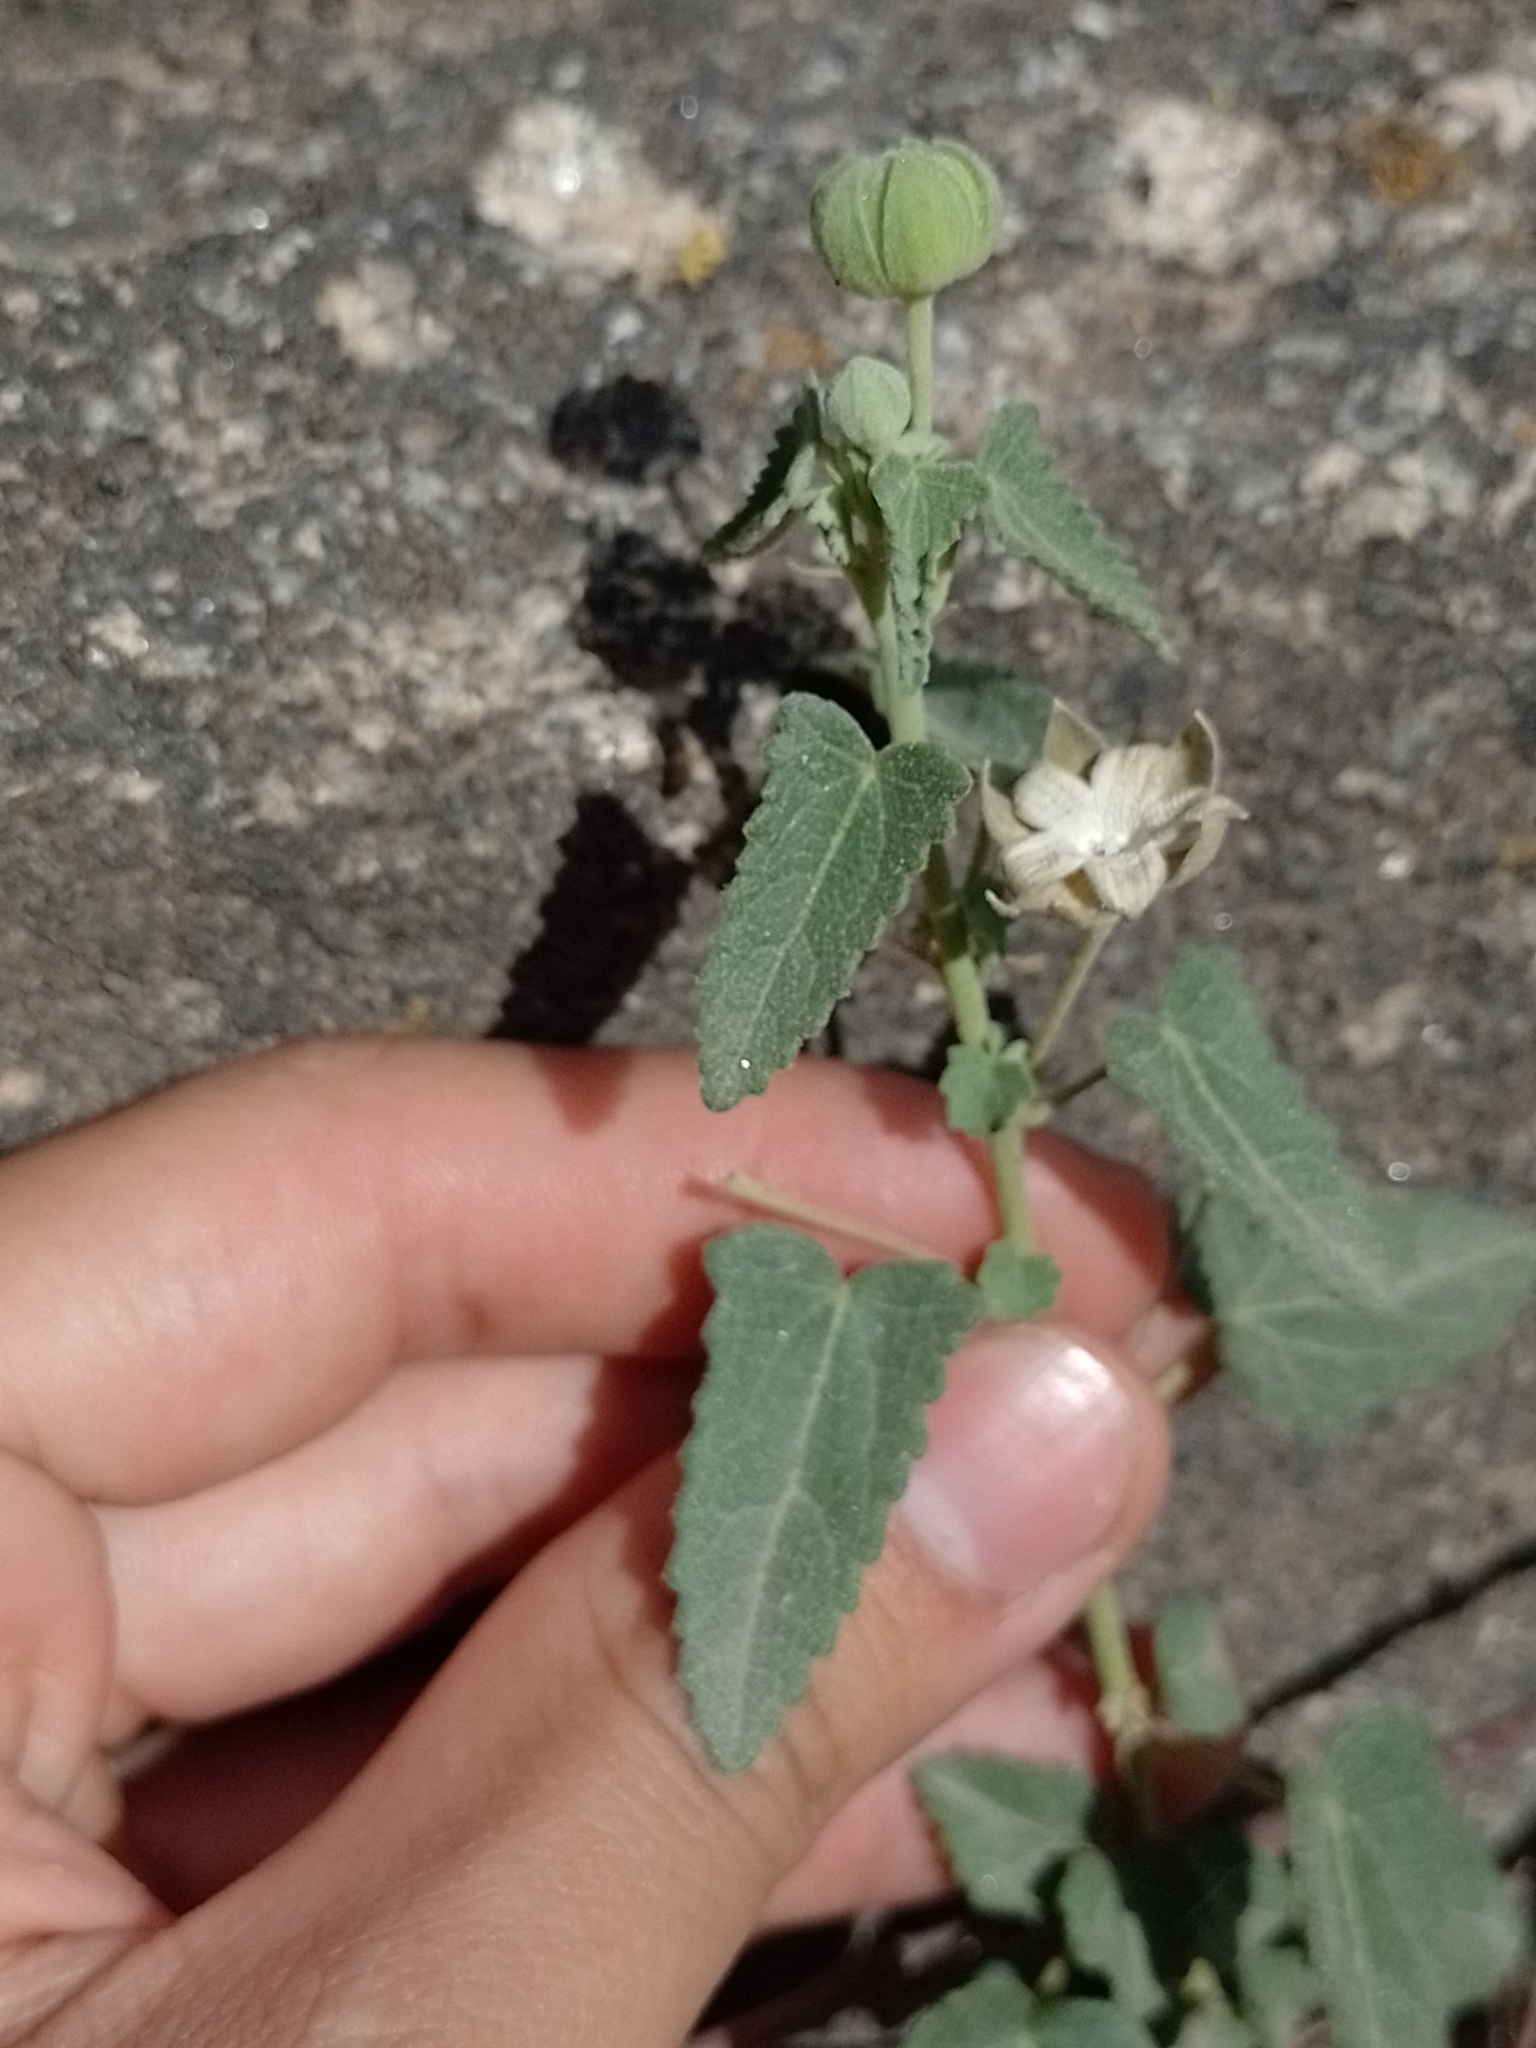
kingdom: Plantae
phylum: Tracheophyta
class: Magnoliopsida
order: Malvales
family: Malvaceae
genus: Pavonia
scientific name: Pavonia aurigloba
